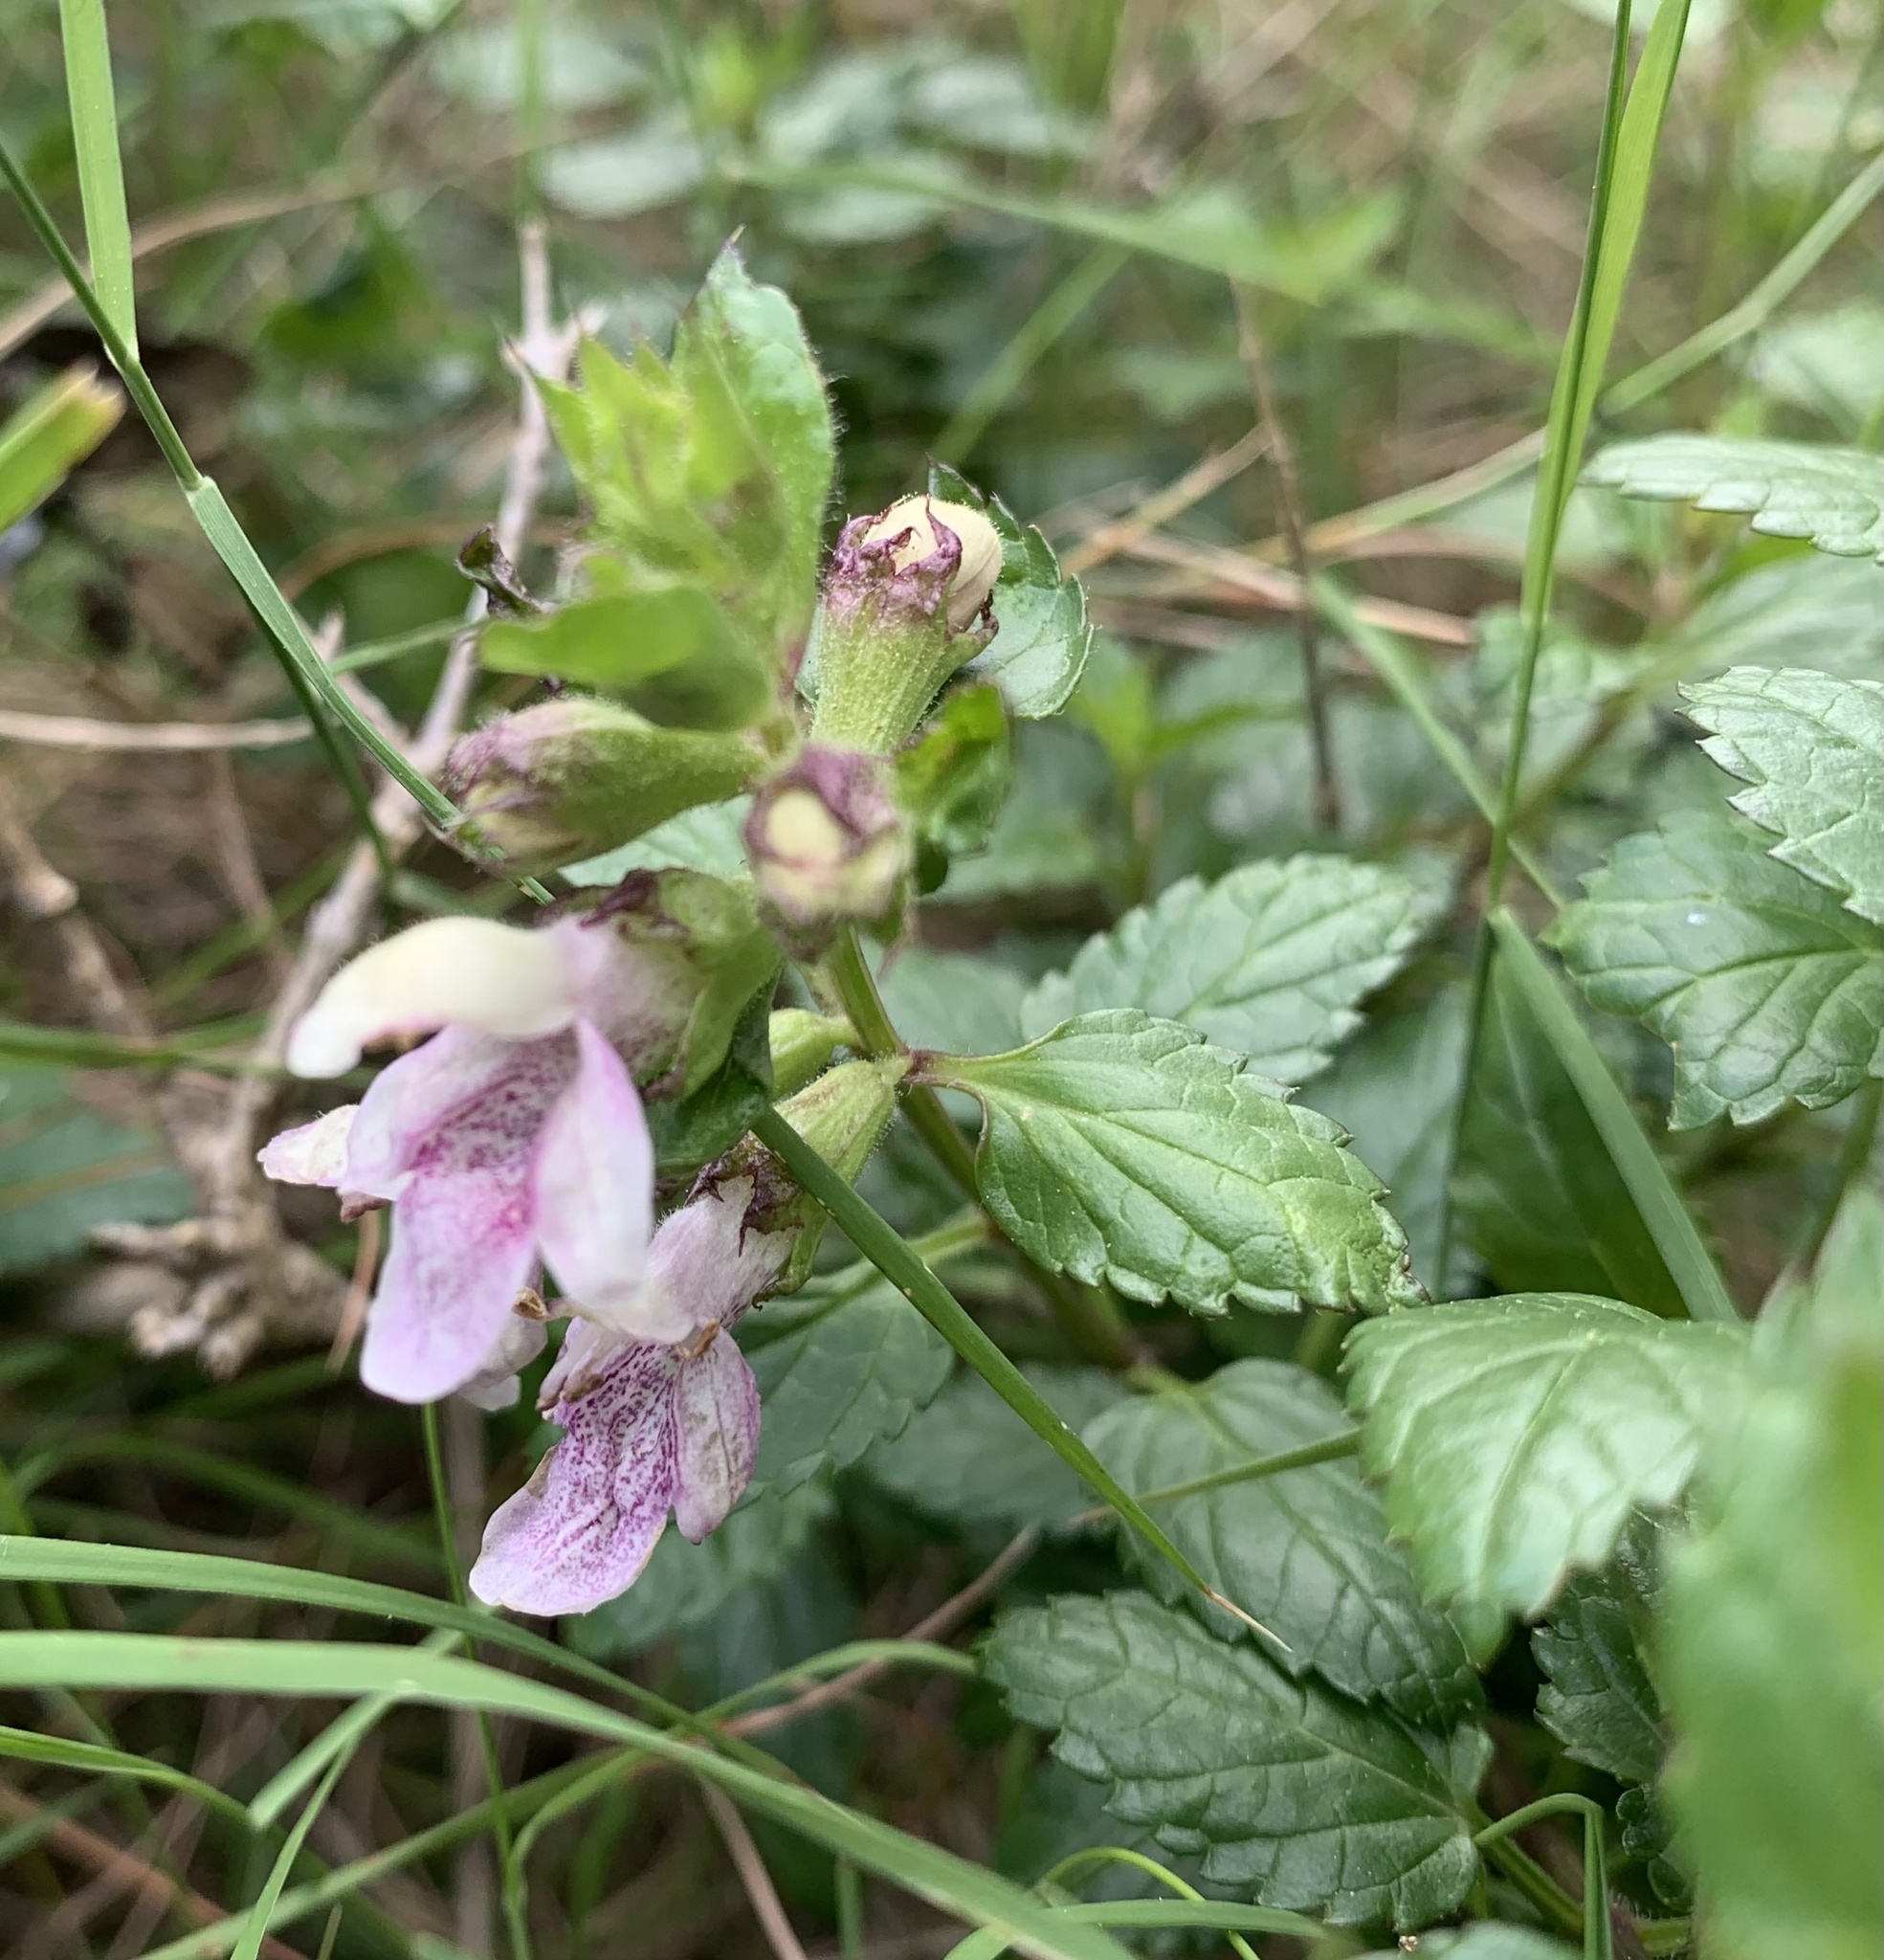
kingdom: Plantae
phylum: Tracheophyta
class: Magnoliopsida
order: Lamiales
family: Lamiaceae
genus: Prasium
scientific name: Prasium majus
